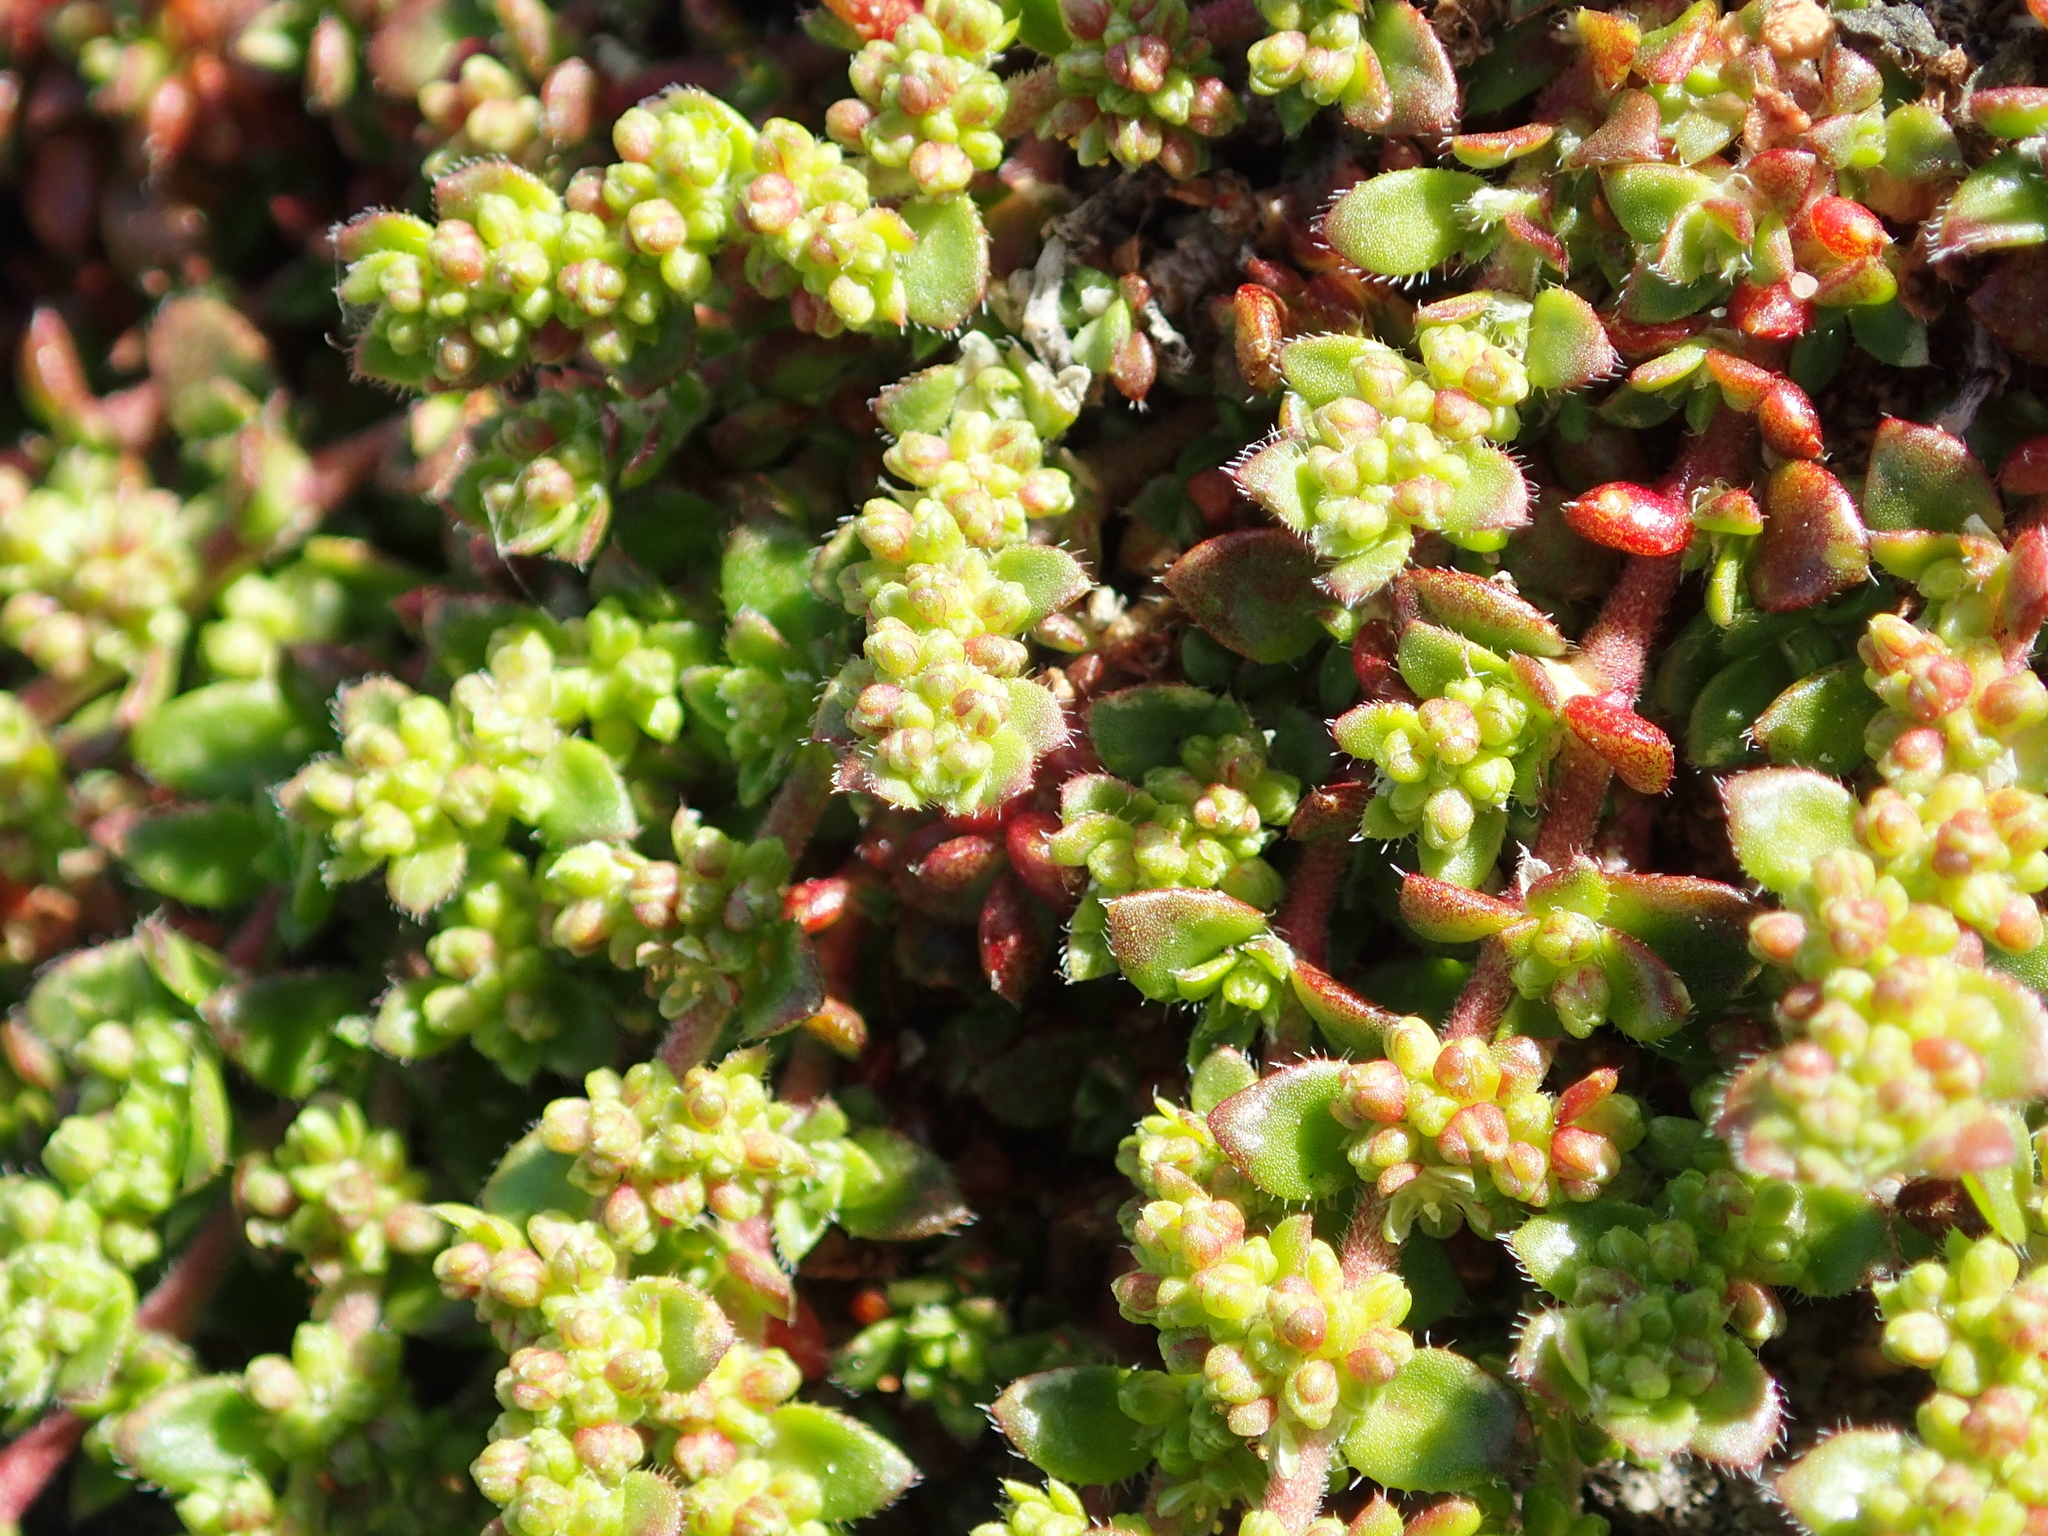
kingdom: Plantae
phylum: Tracheophyta
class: Magnoliopsida
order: Caryophyllales
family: Caryophyllaceae
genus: Herniaria
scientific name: Herniaria ciliolata
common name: Fringed rupture-wort
